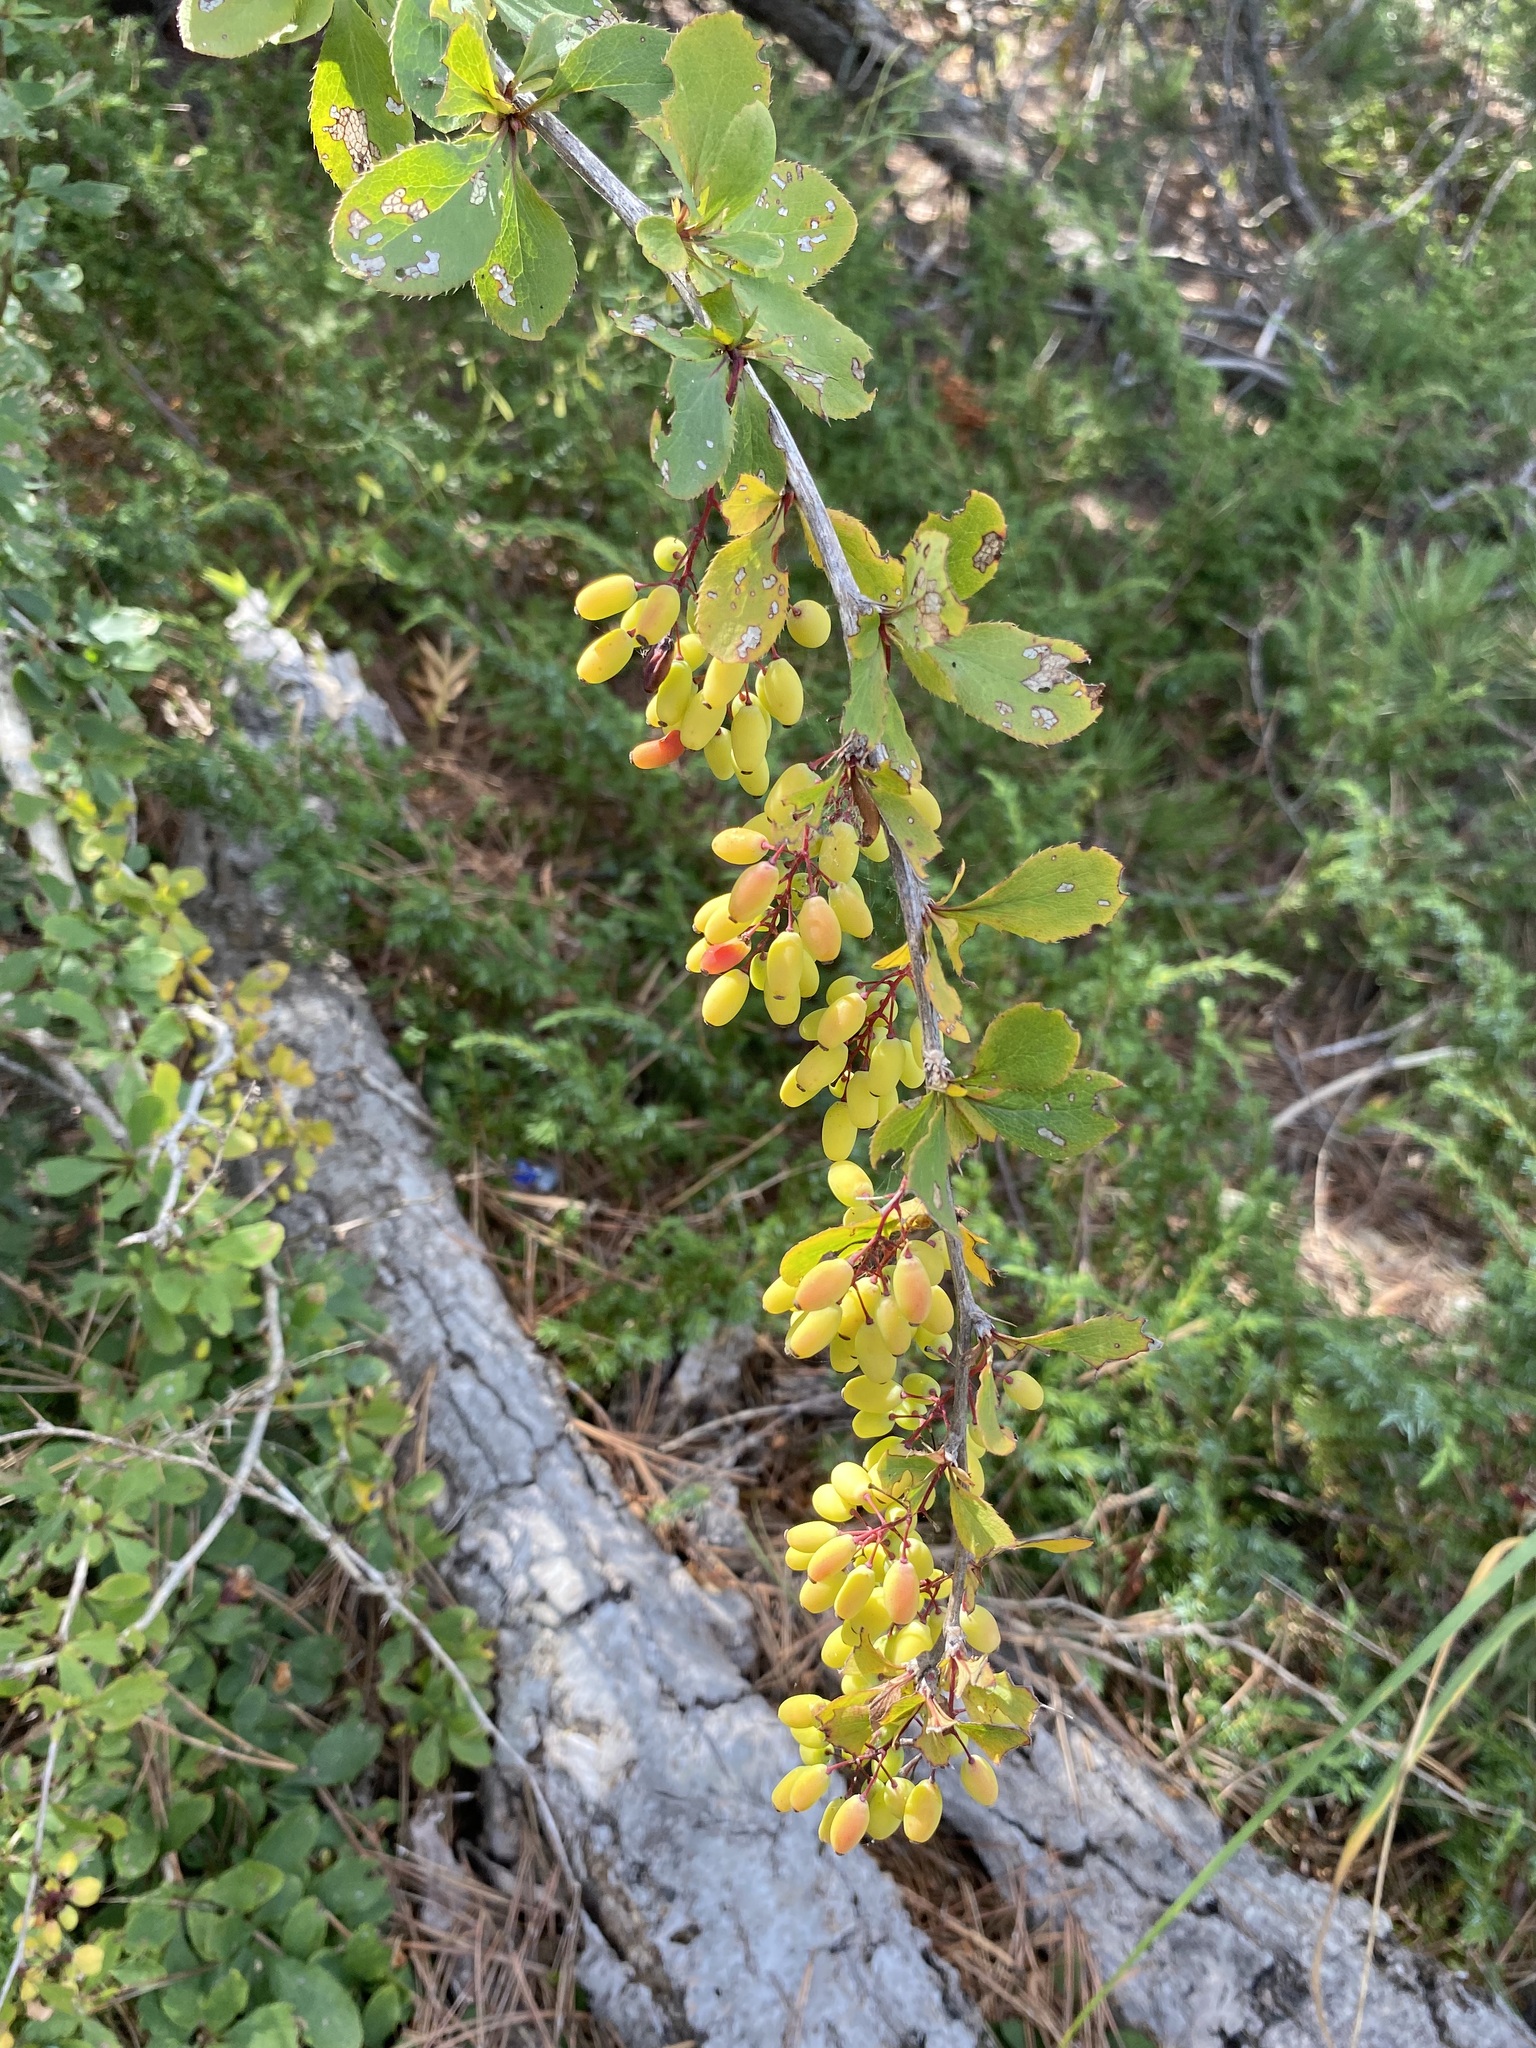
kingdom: Plantae
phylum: Tracheophyta
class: Magnoliopsida
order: Ranunculales
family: Berberidaceae
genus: Berberis
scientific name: Berberis vulgaris
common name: Barberry
